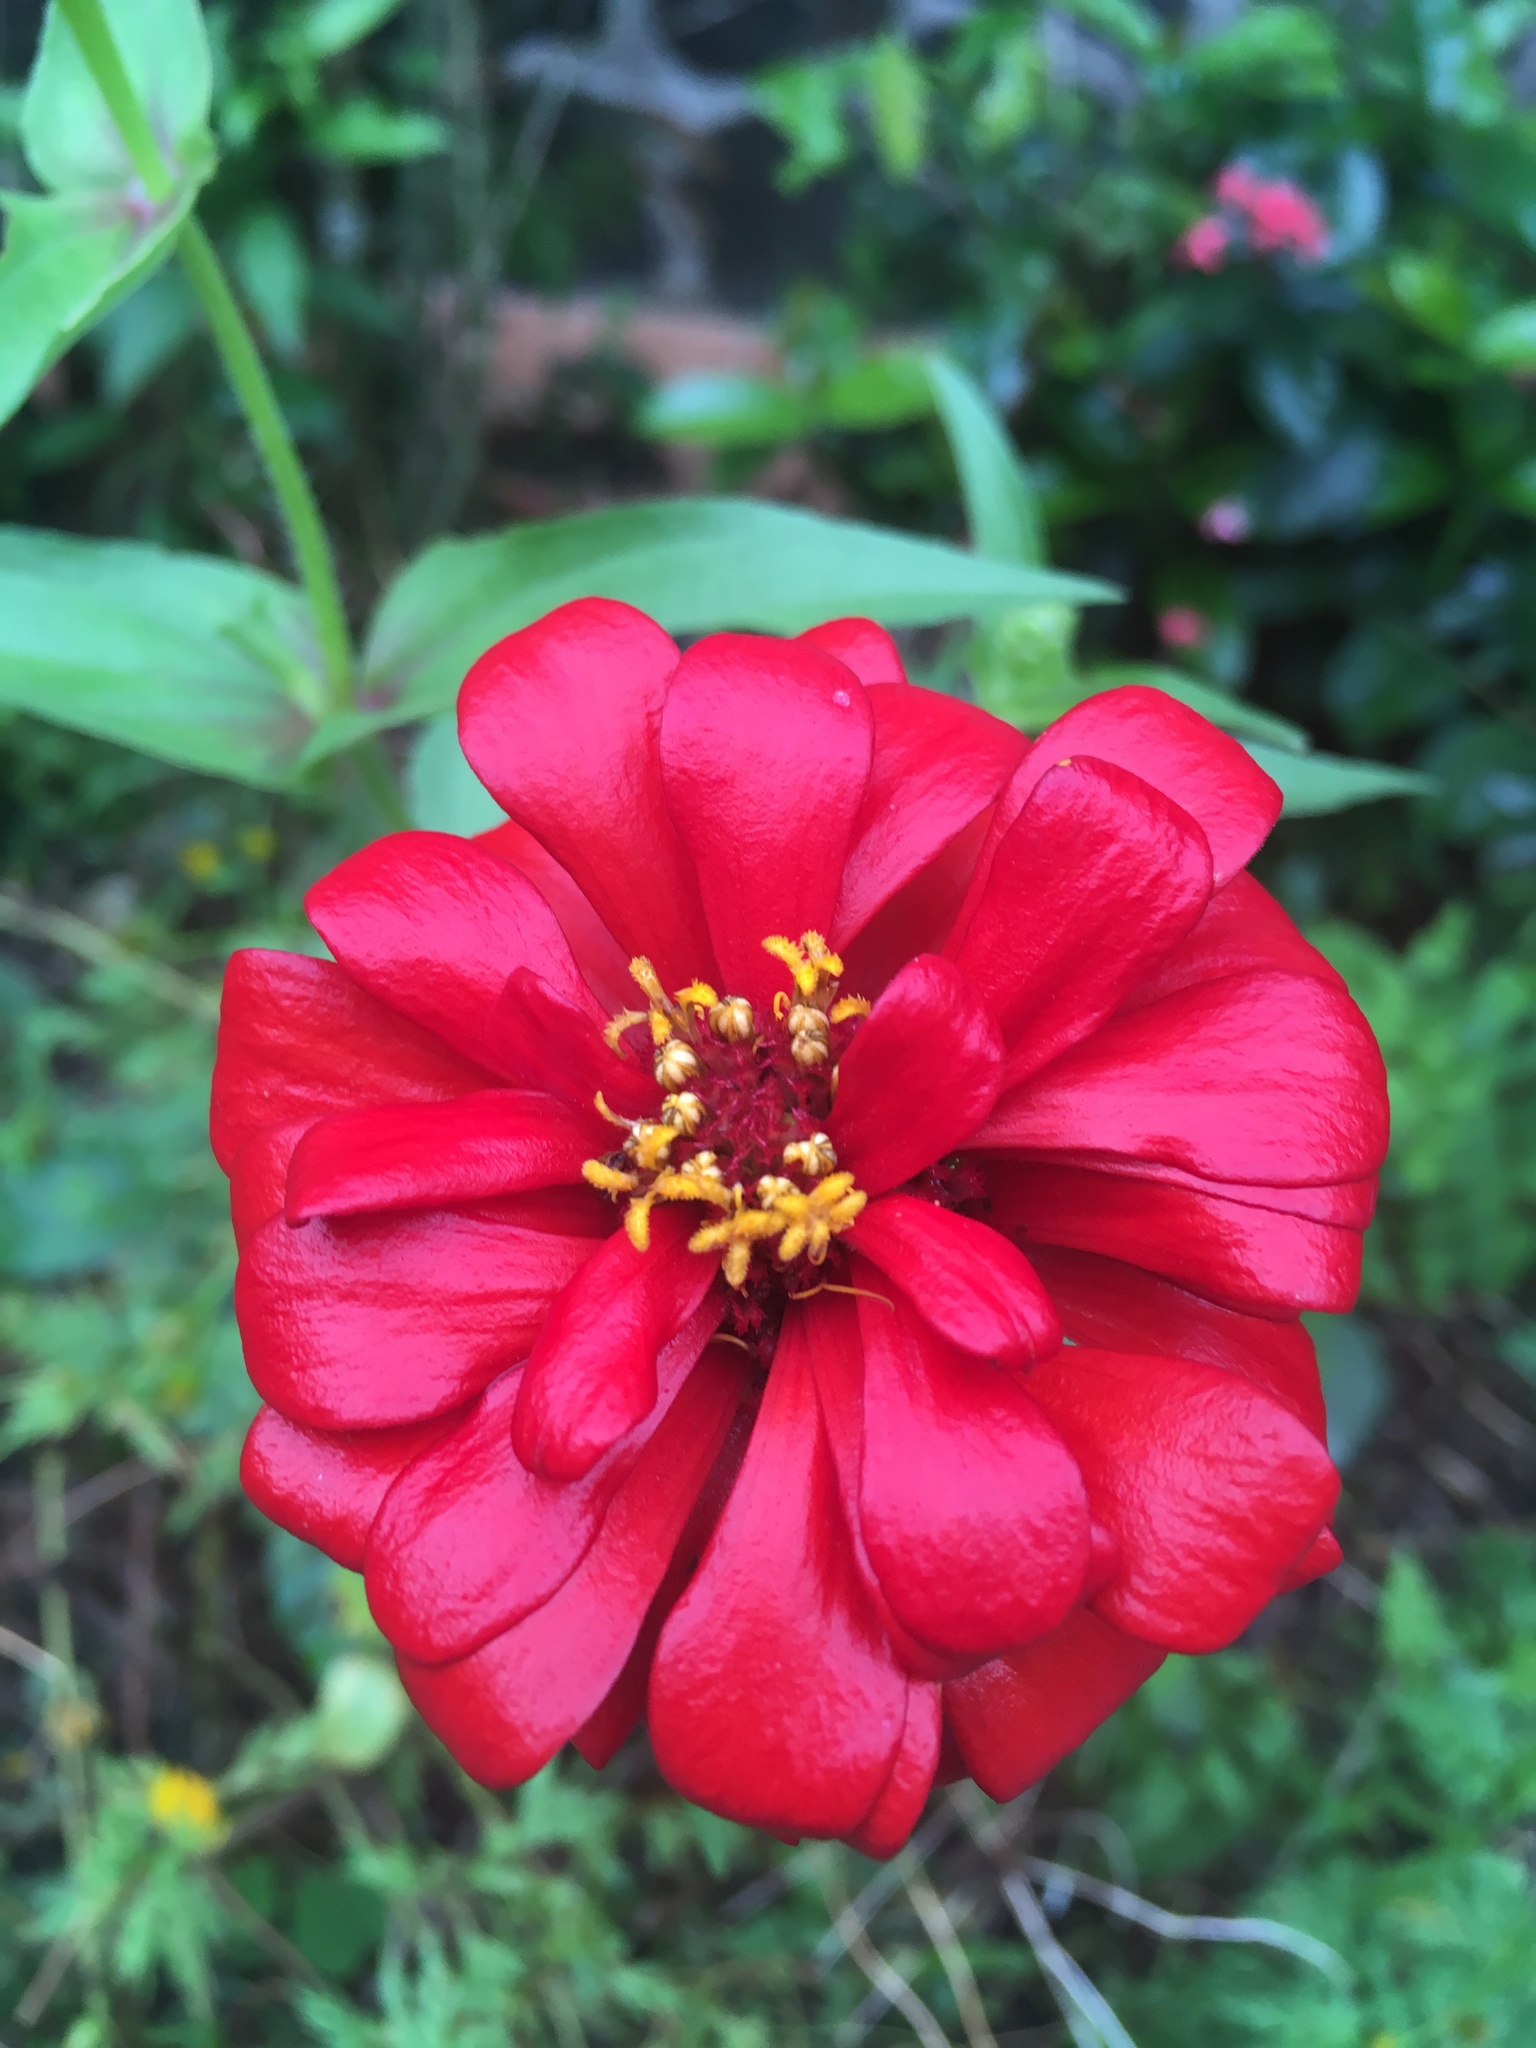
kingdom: Plantae
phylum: Tracheophyta
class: Magnoliopsida
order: Asterales
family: Asteraceae
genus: Zinnia
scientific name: Zinnia elegans
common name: Youth-and-age
